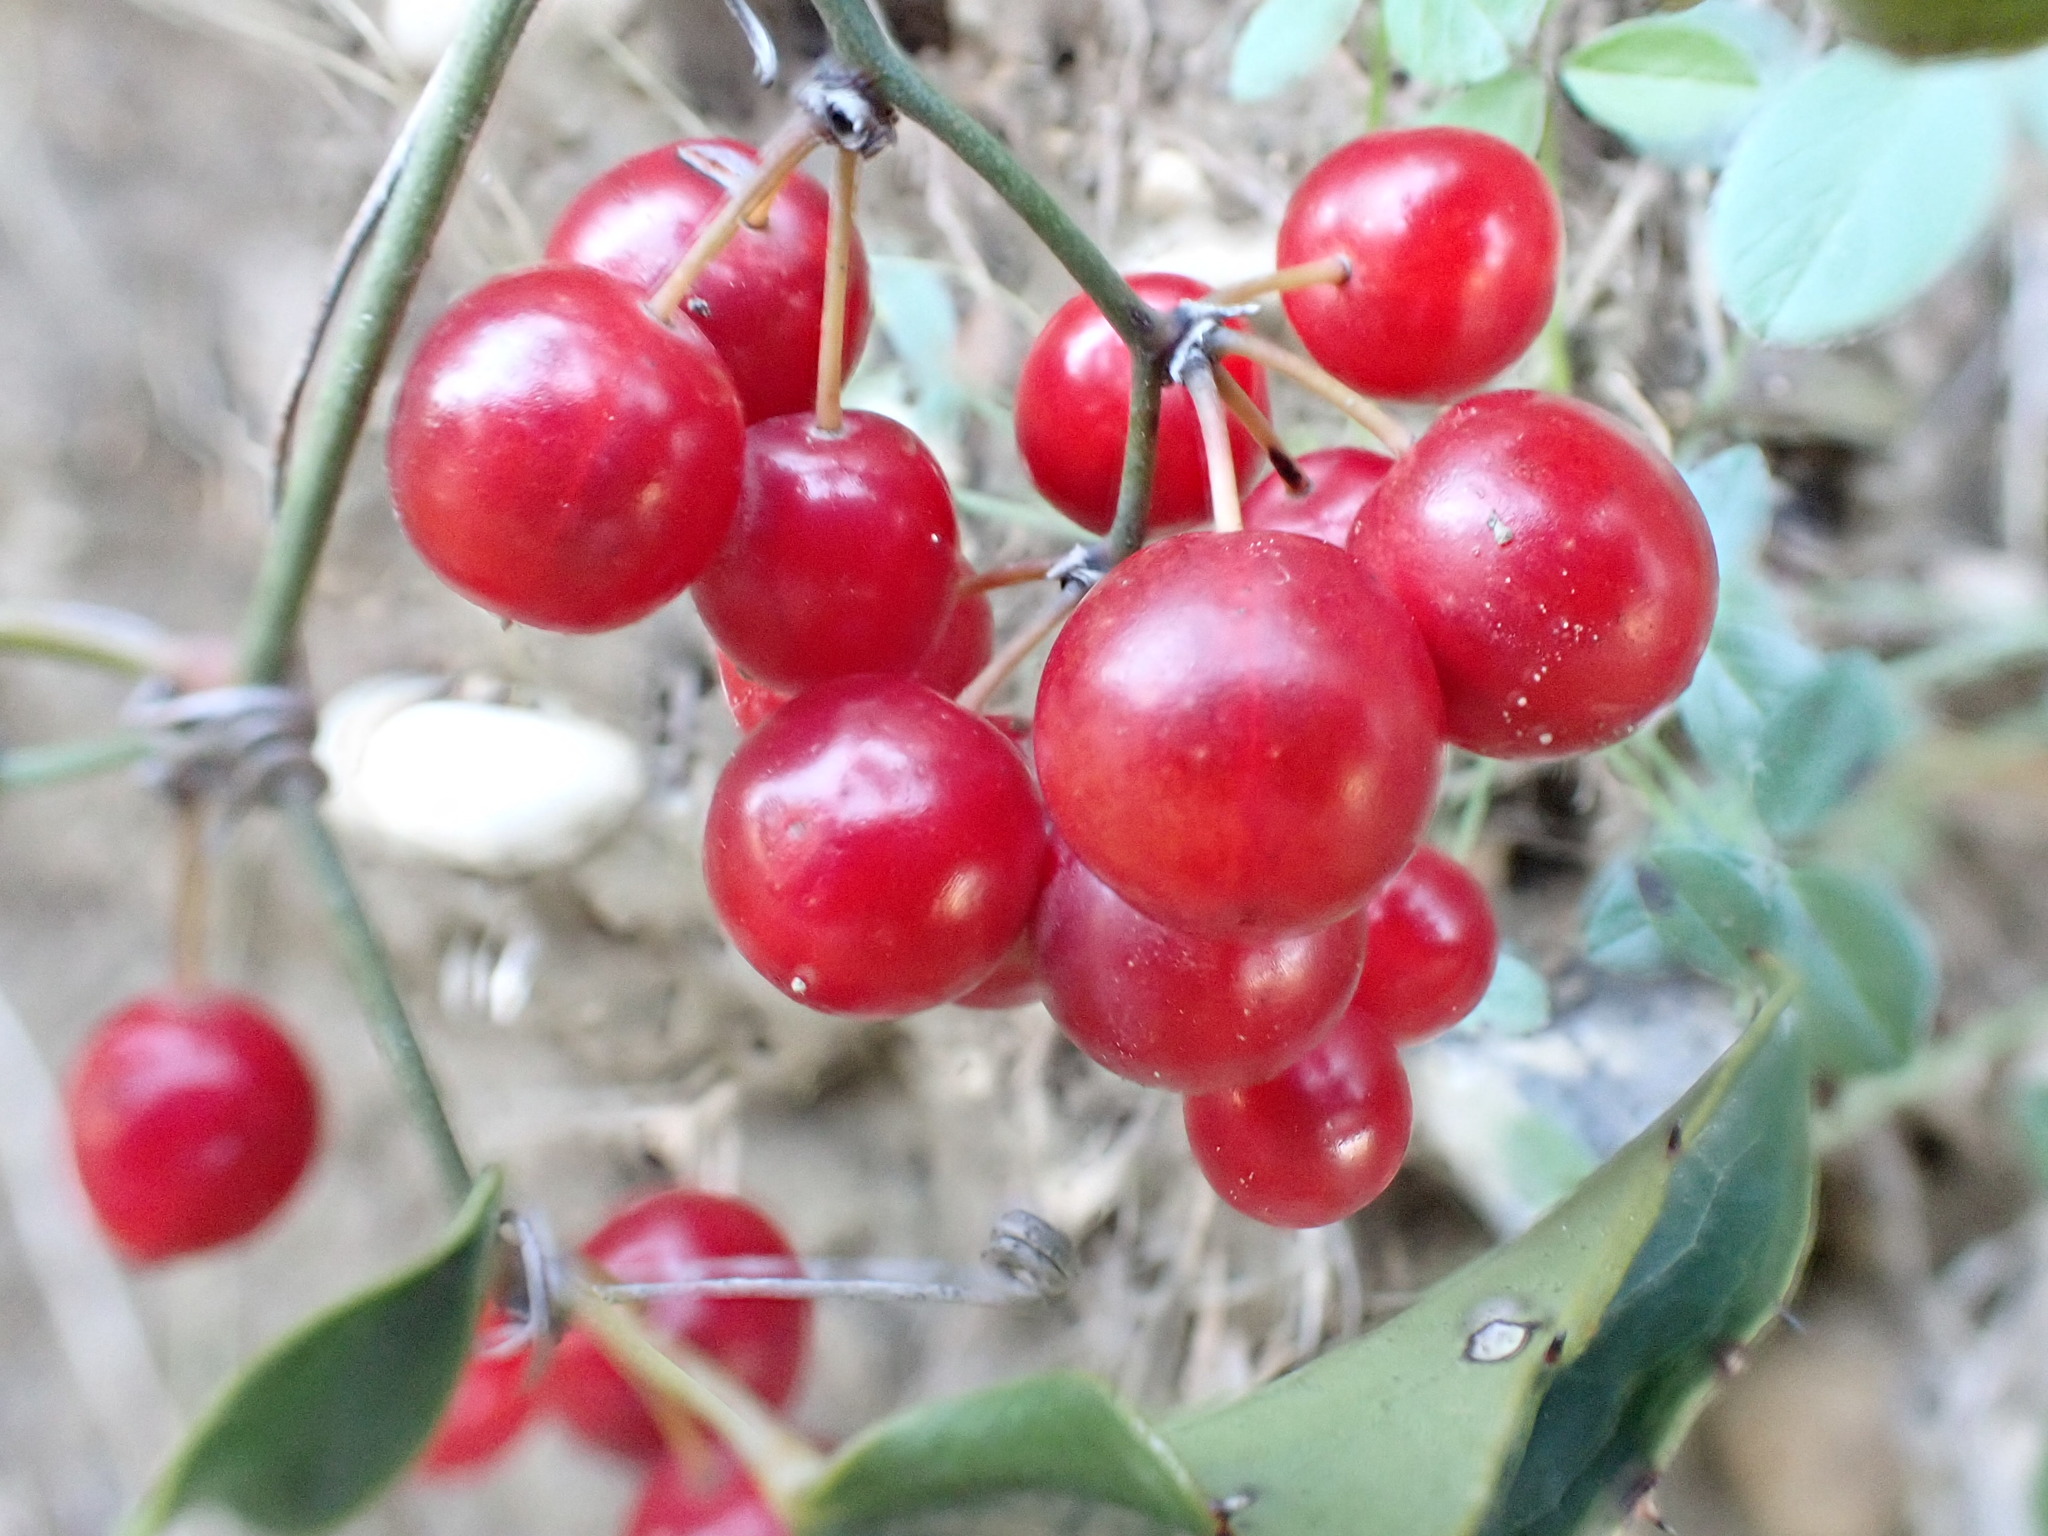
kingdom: Plantae
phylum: Tracheophyta
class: Liliopsida
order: Liliales
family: Smilacaceae
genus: Smilax
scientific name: Smilax aspera
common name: Common smilax
